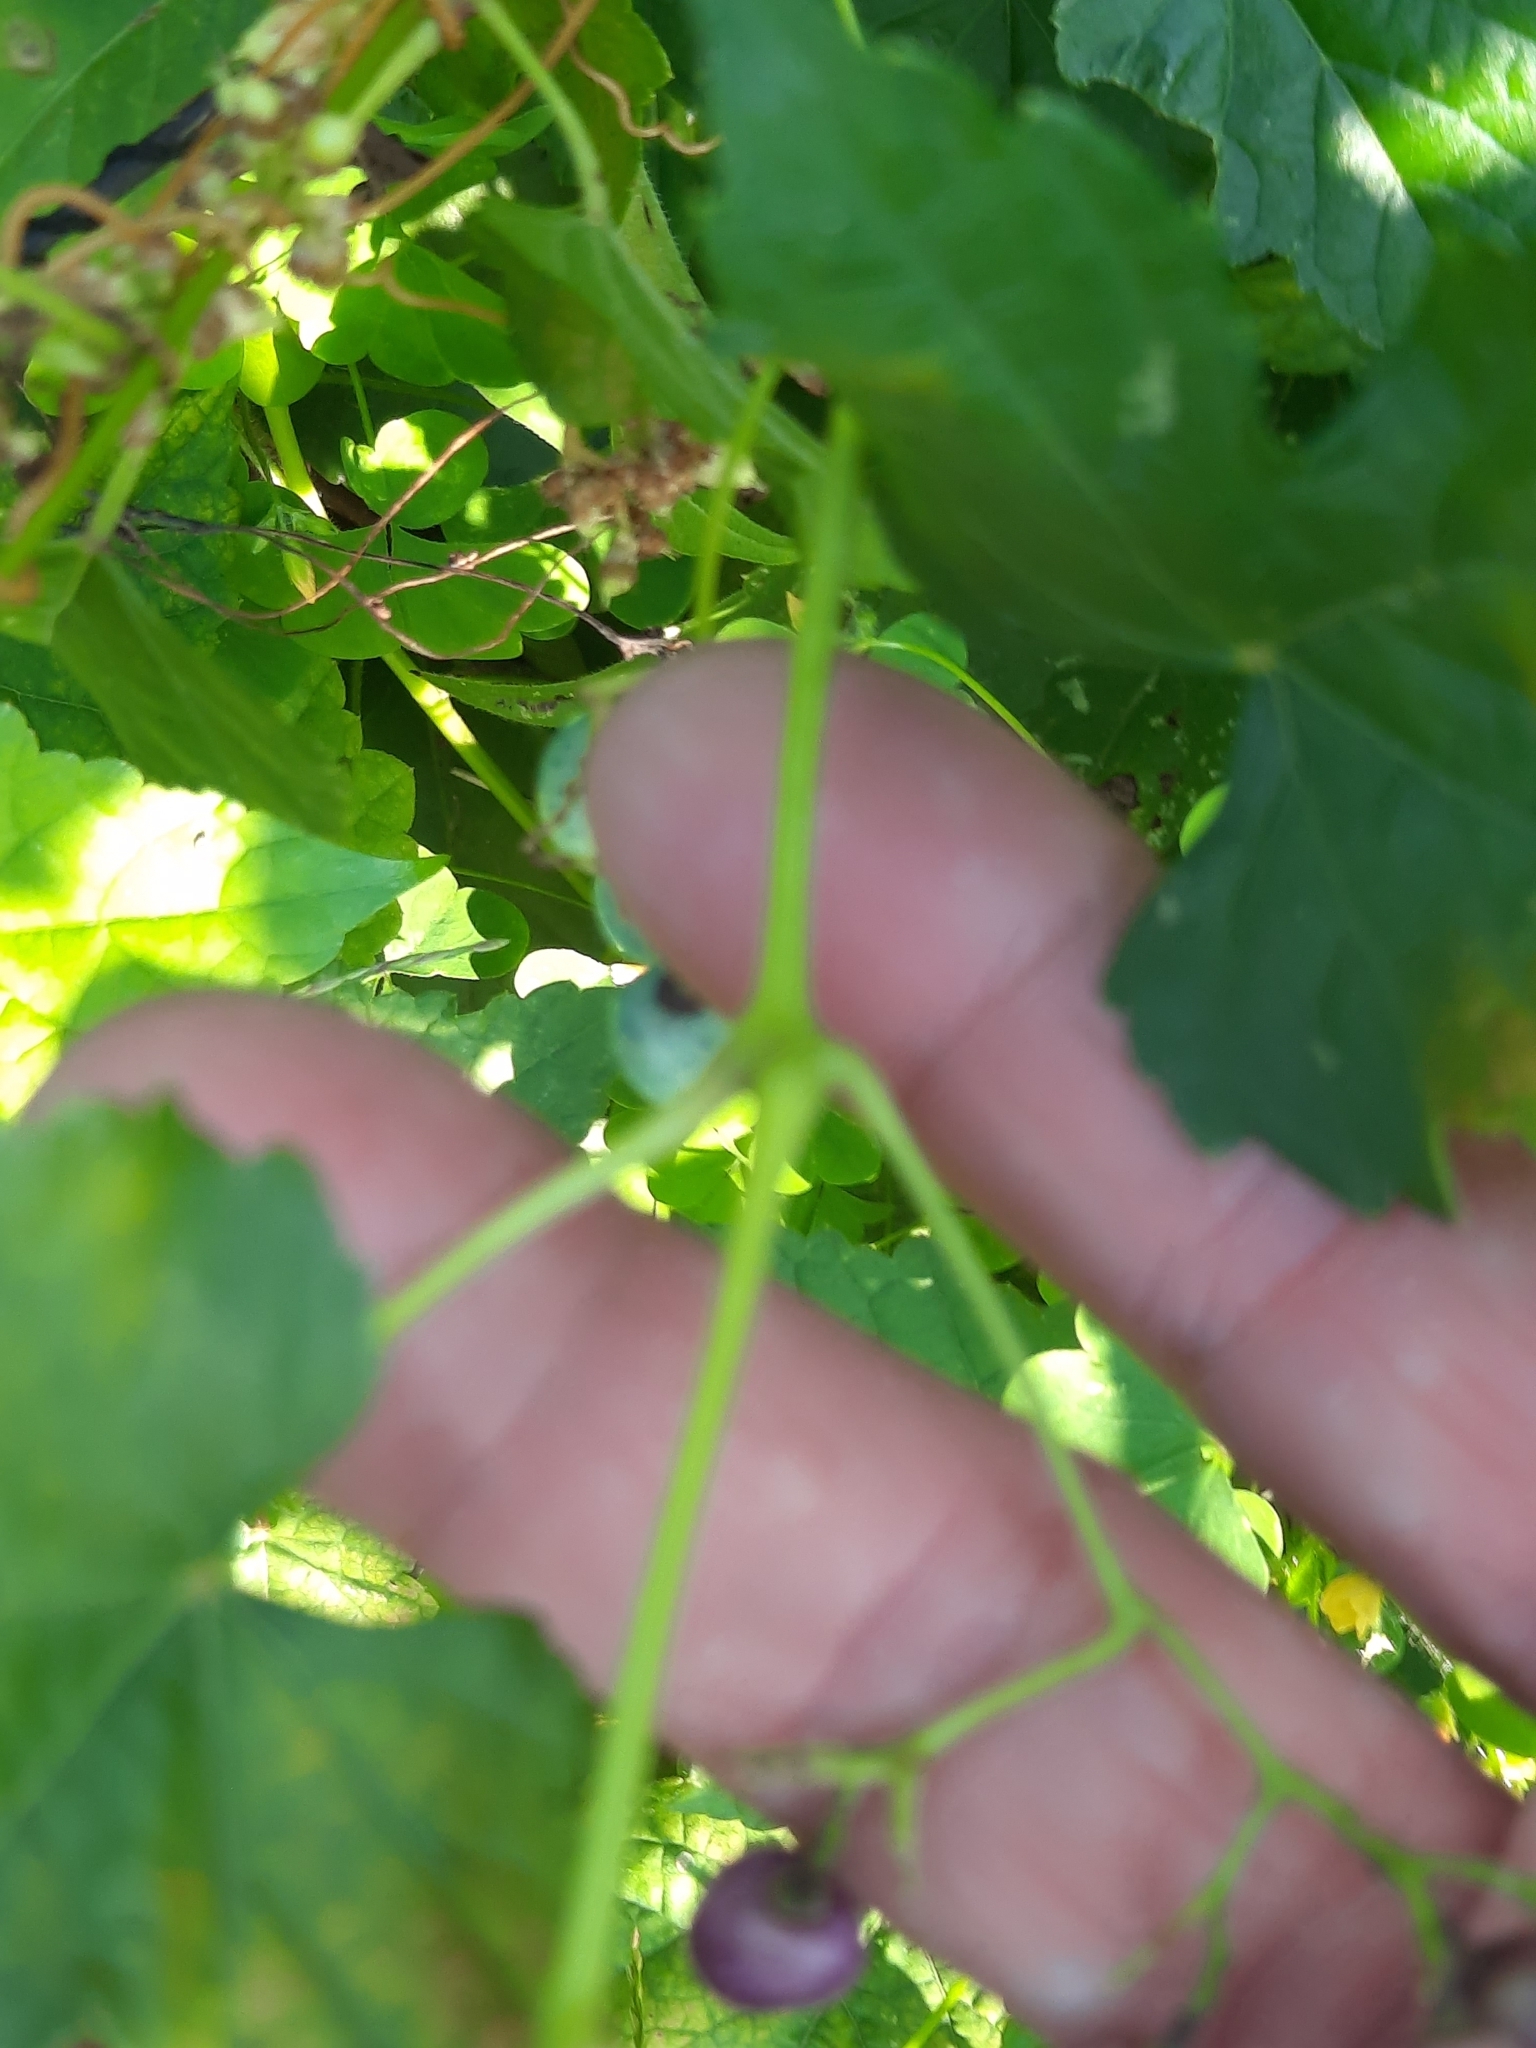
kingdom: Plantae
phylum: Tracheophyta
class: Magnoliopsida
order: Vitales
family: Vitaceae
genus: Ampelopsis
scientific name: Ampelopsis glandulosa
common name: Amur peppervine
